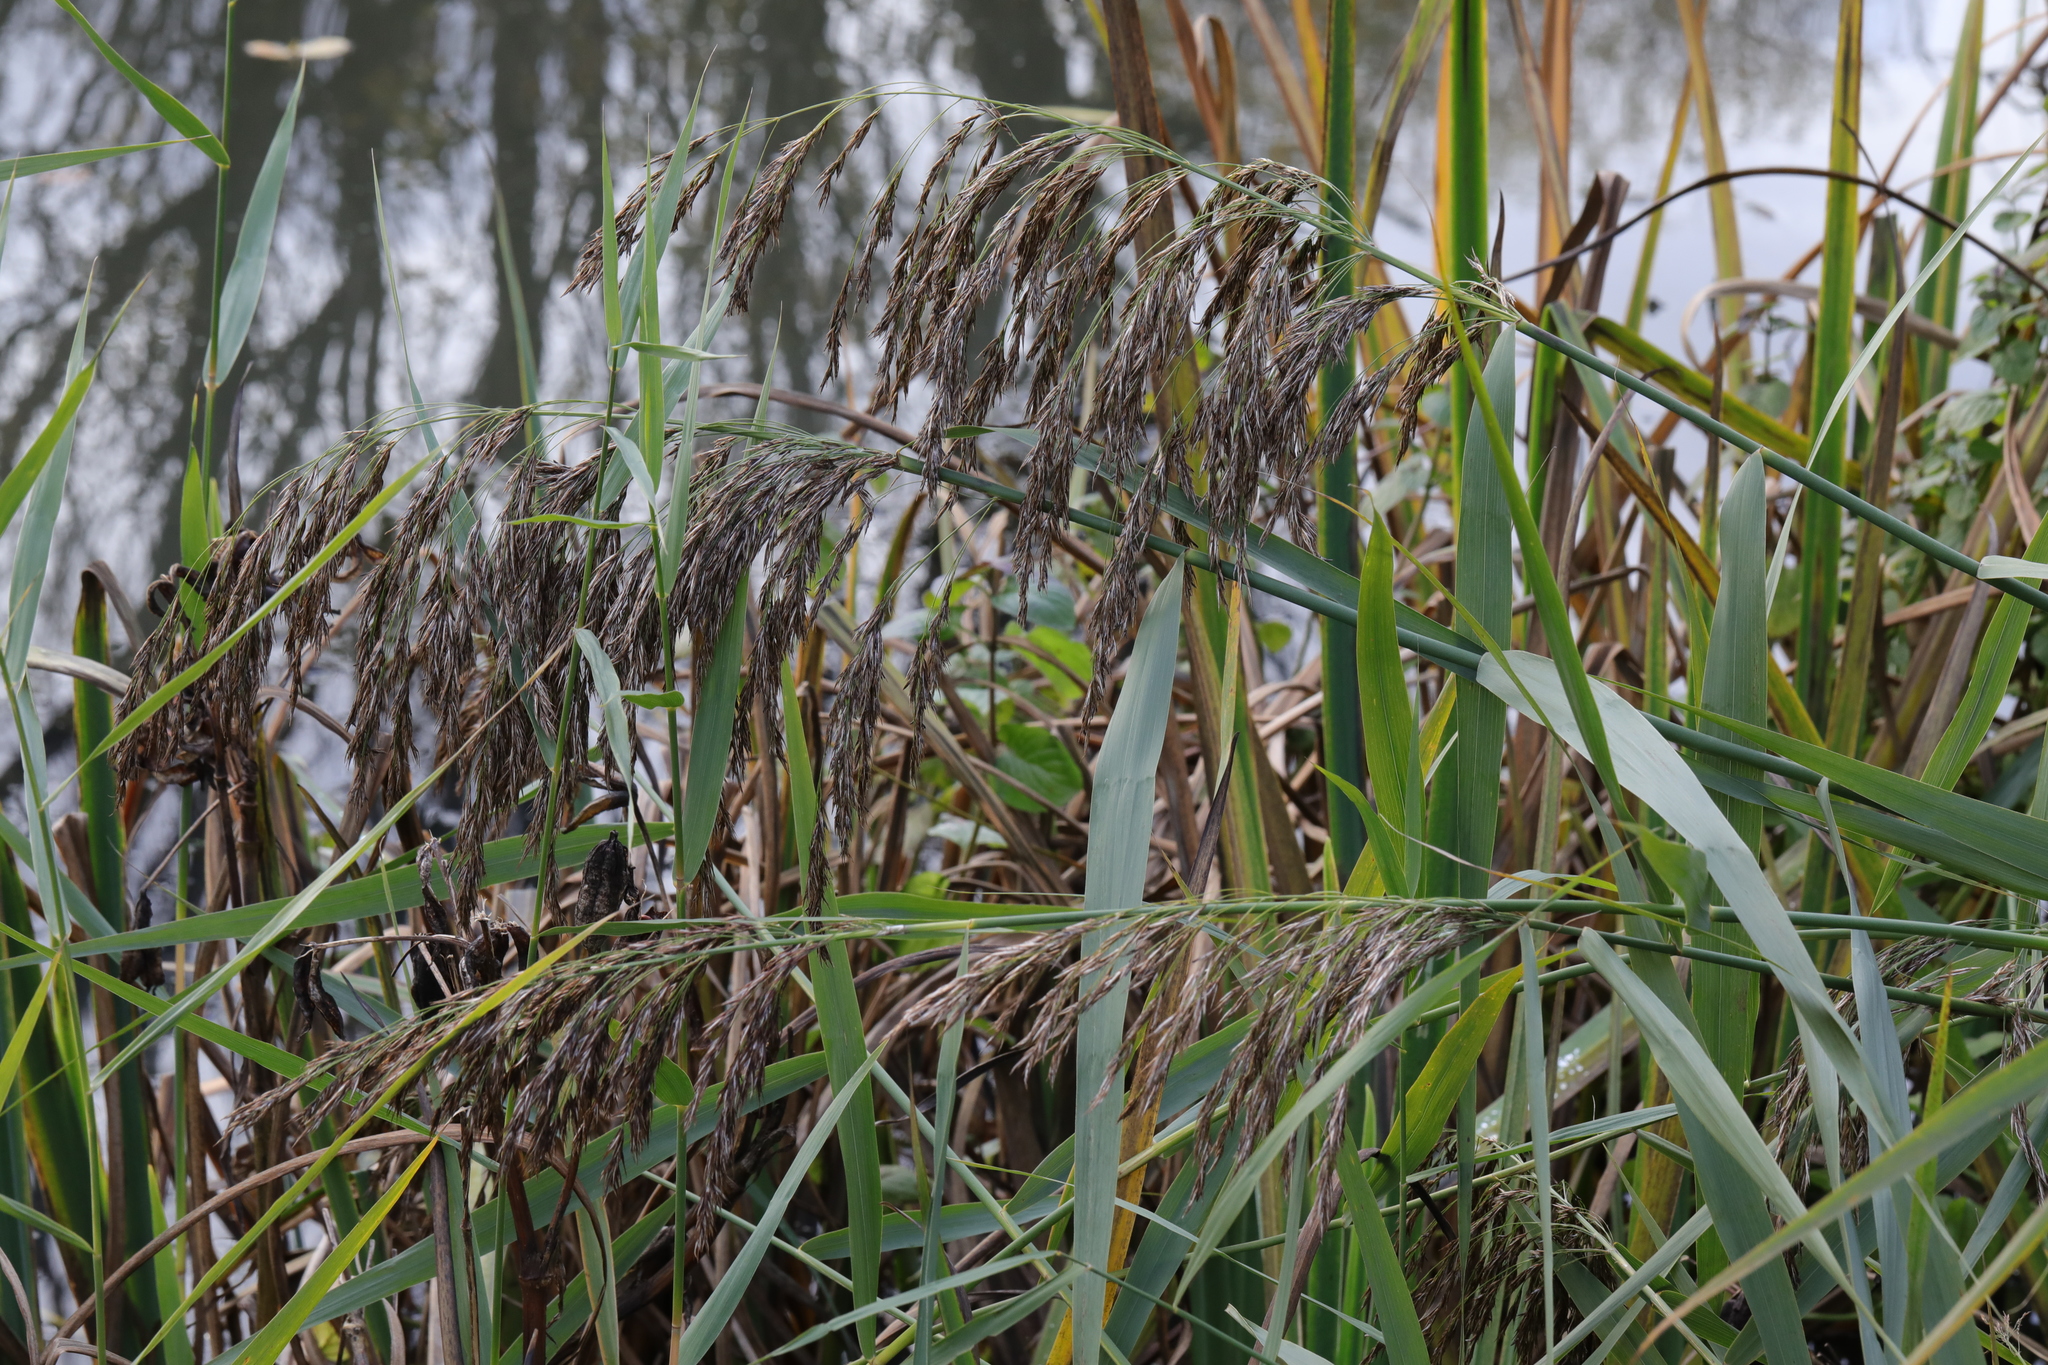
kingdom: Plantae
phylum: Tracheophyta
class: Liliopsida
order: Poales
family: Poaceae
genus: Phragmites
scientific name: Phragmites australis
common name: Common reed
